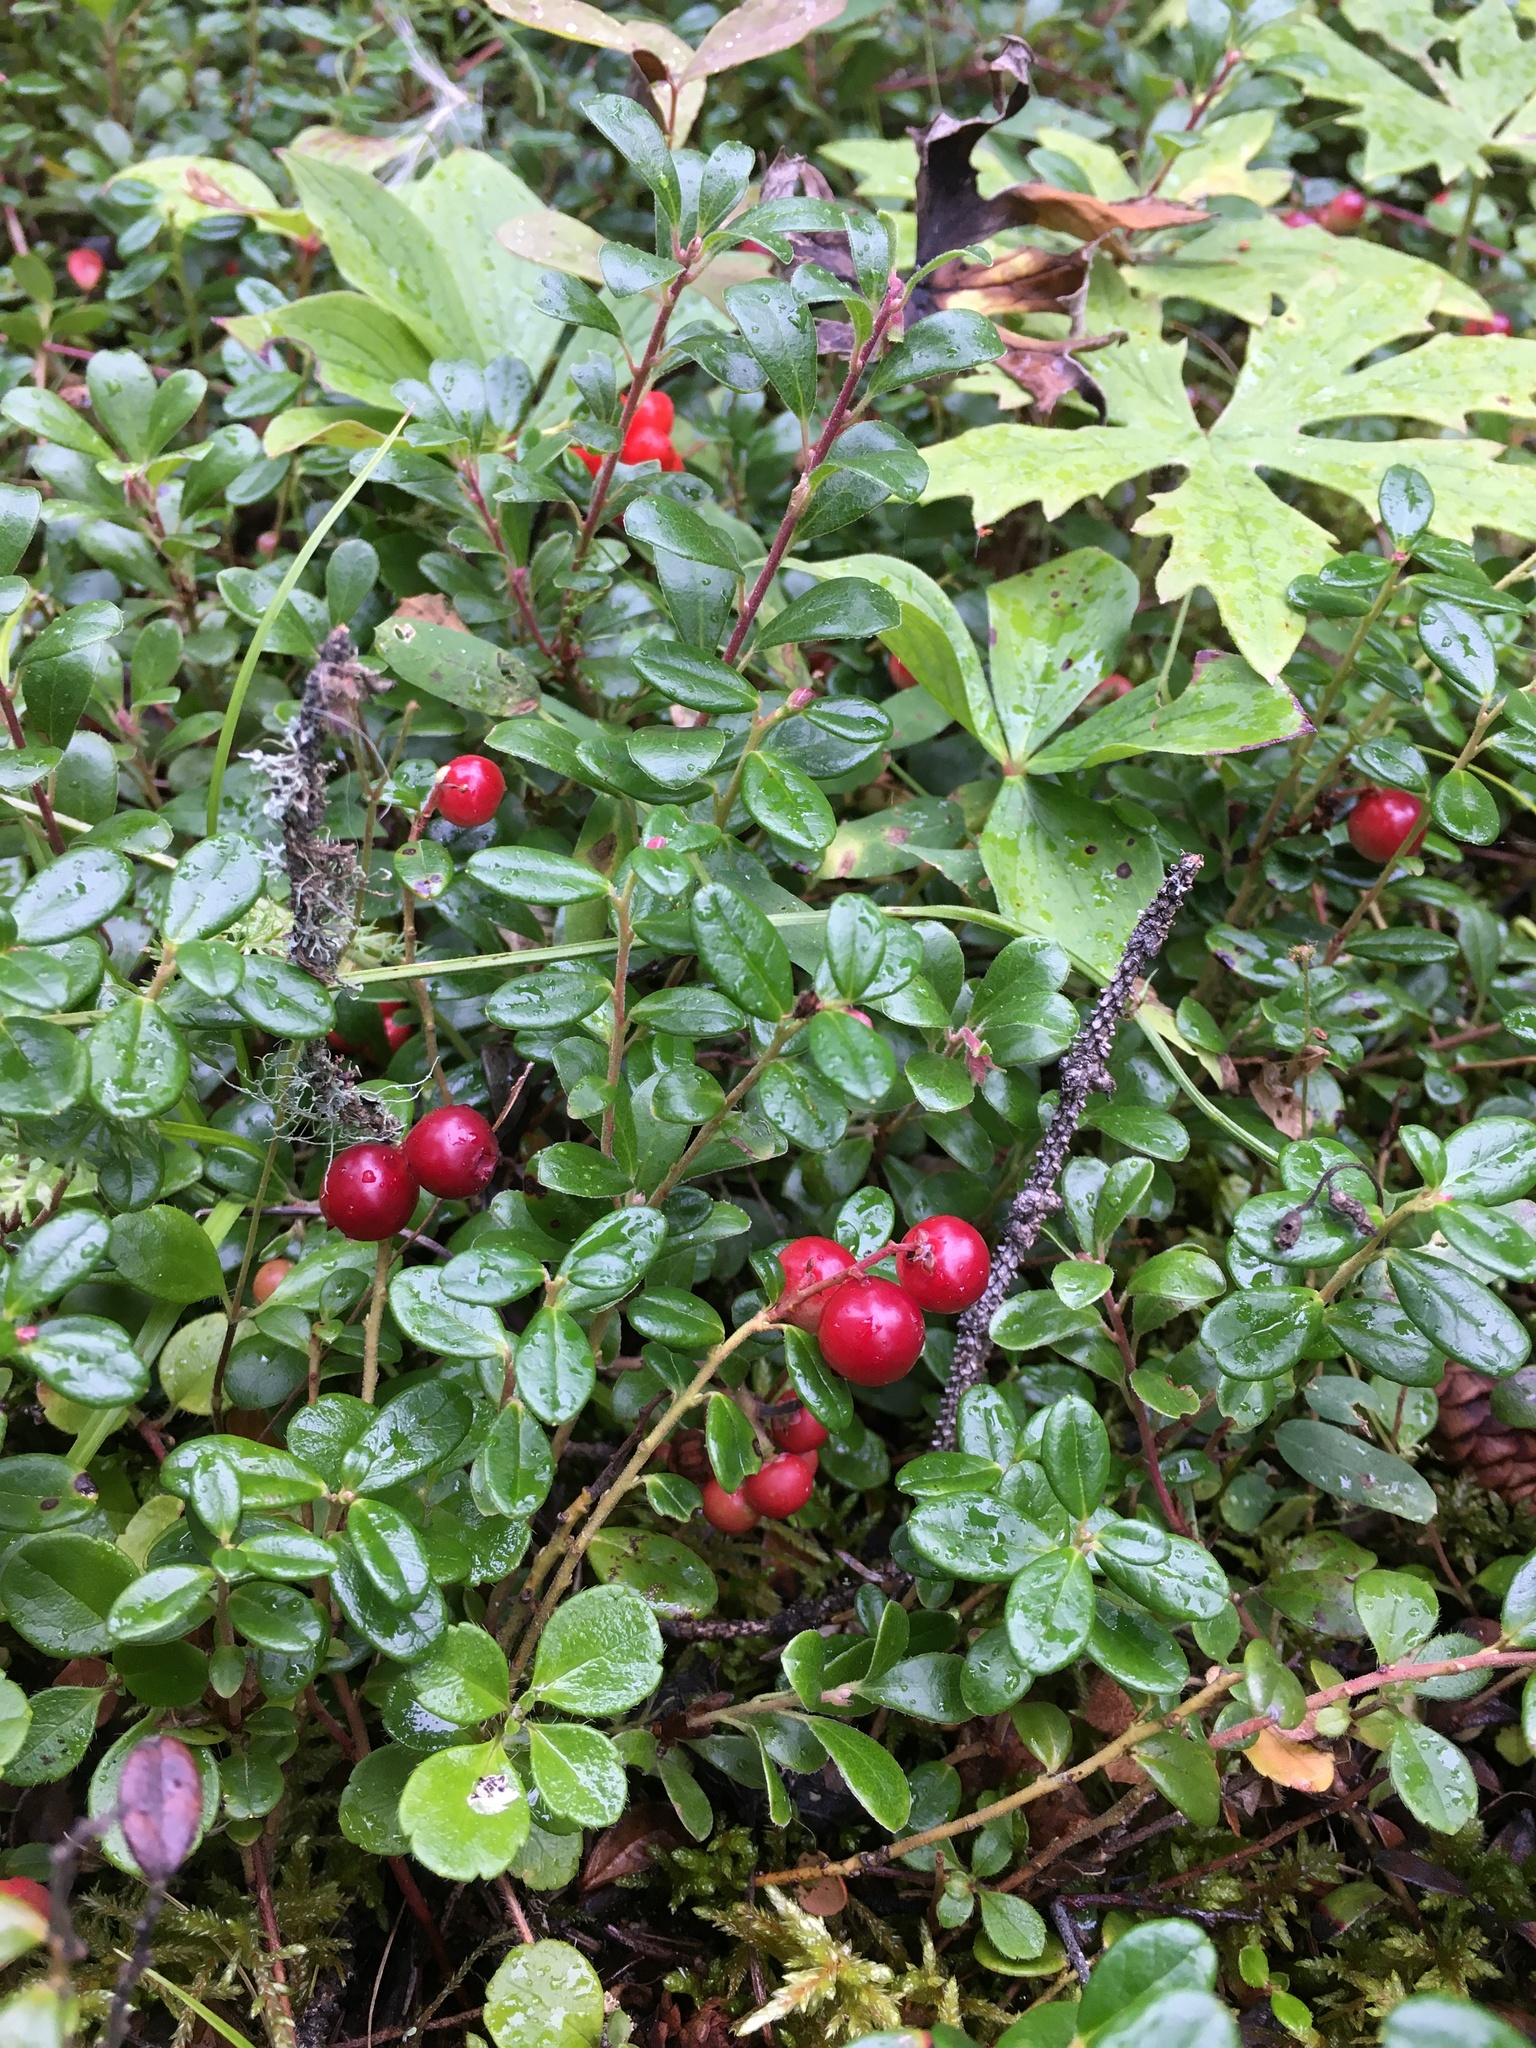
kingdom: Plantae
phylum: Tracheophyta
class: Magnoliopsida
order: Ericales
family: Ericaceae
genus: Vaccinium
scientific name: Vaccinium vitis-idaea
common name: Cowberry
